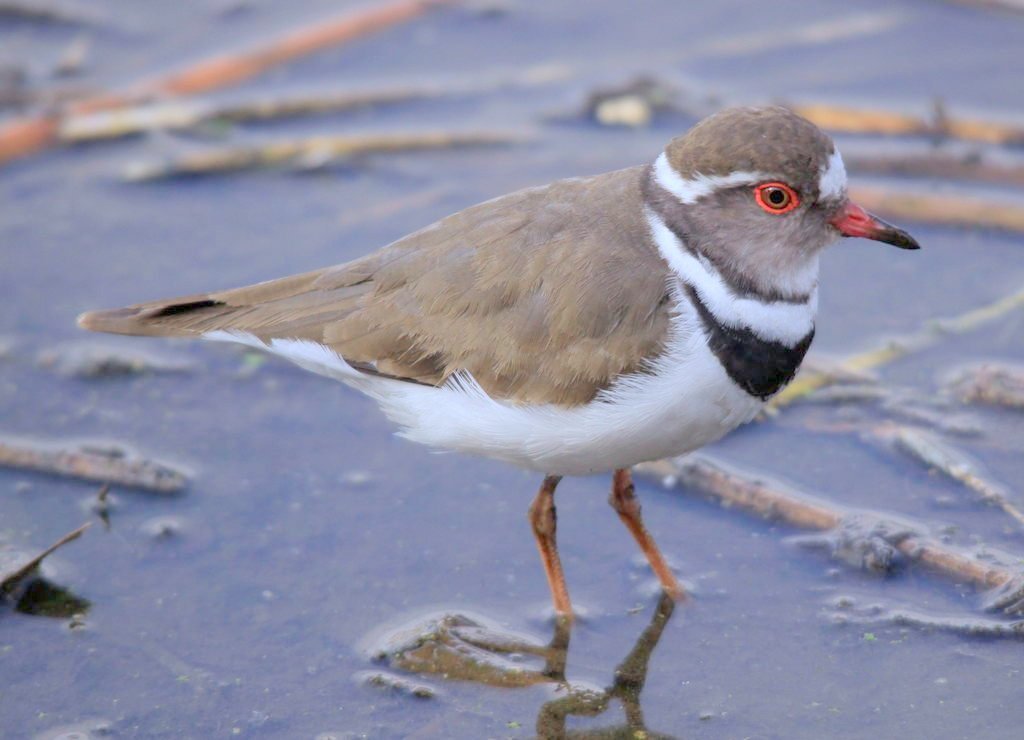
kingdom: Animalia
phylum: Chordata
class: Aves
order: Charadriiformes
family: Charadriidae
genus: Charadrius
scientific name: Charadrius tricollaris
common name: Three-banded plover
